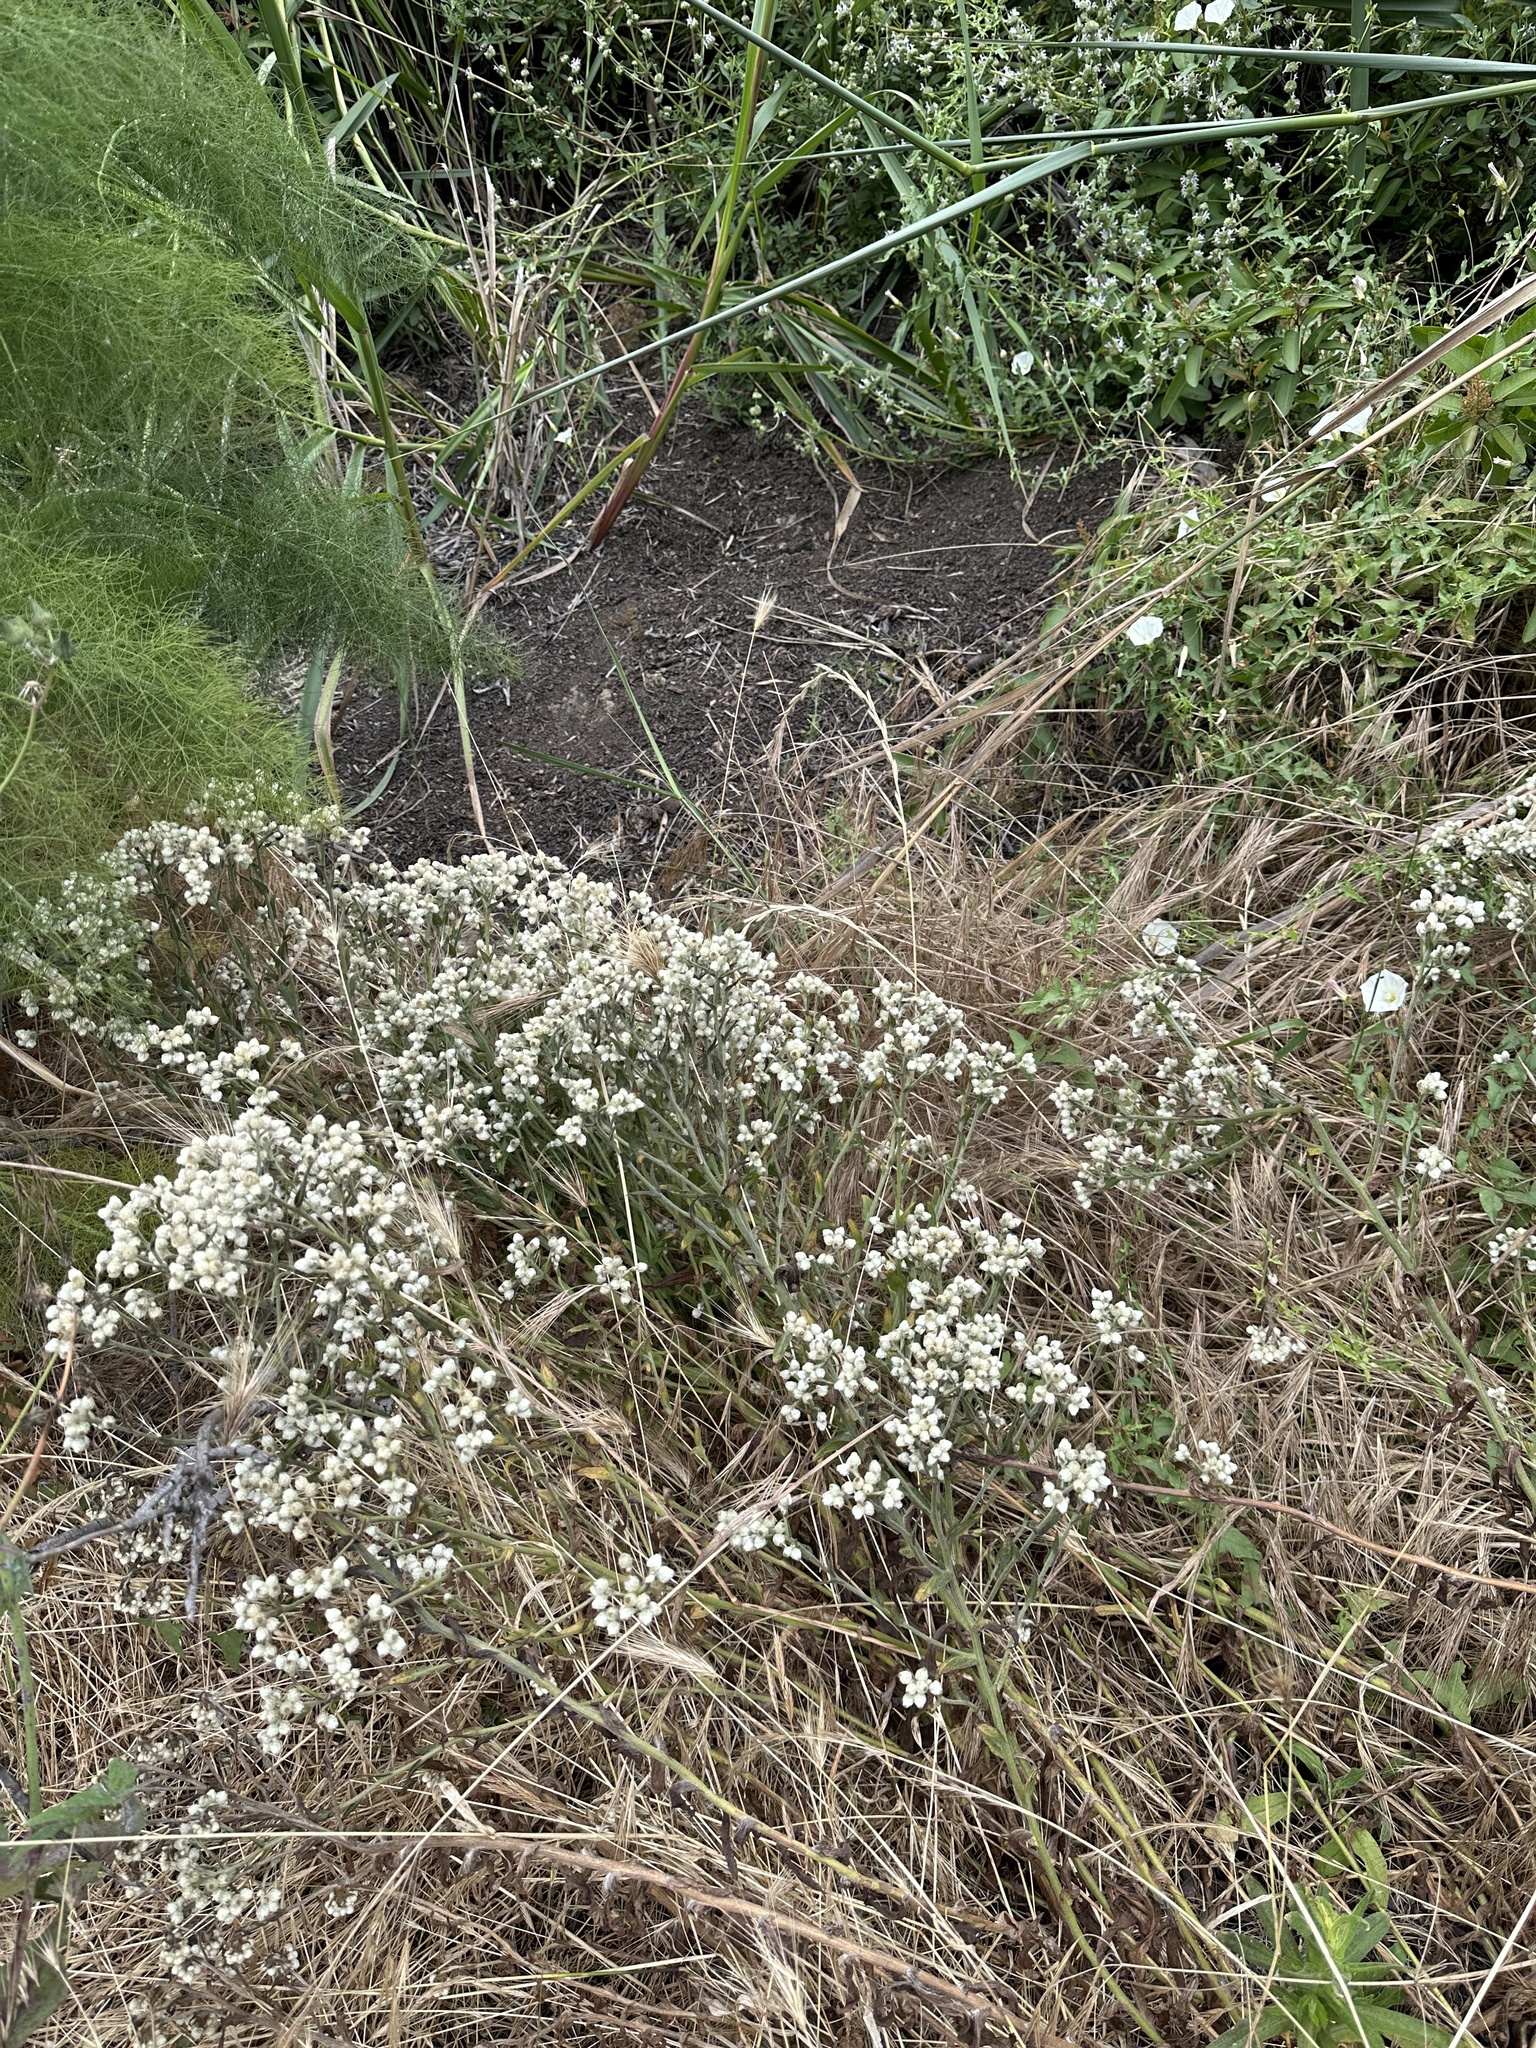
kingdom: Plantae
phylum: Tracheophyta
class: Magnoliopsida
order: Asterales
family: Asteraceae
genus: Pseudognaphalium
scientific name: Pseudognaphalium californicum
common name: California rabbit-tobacco
